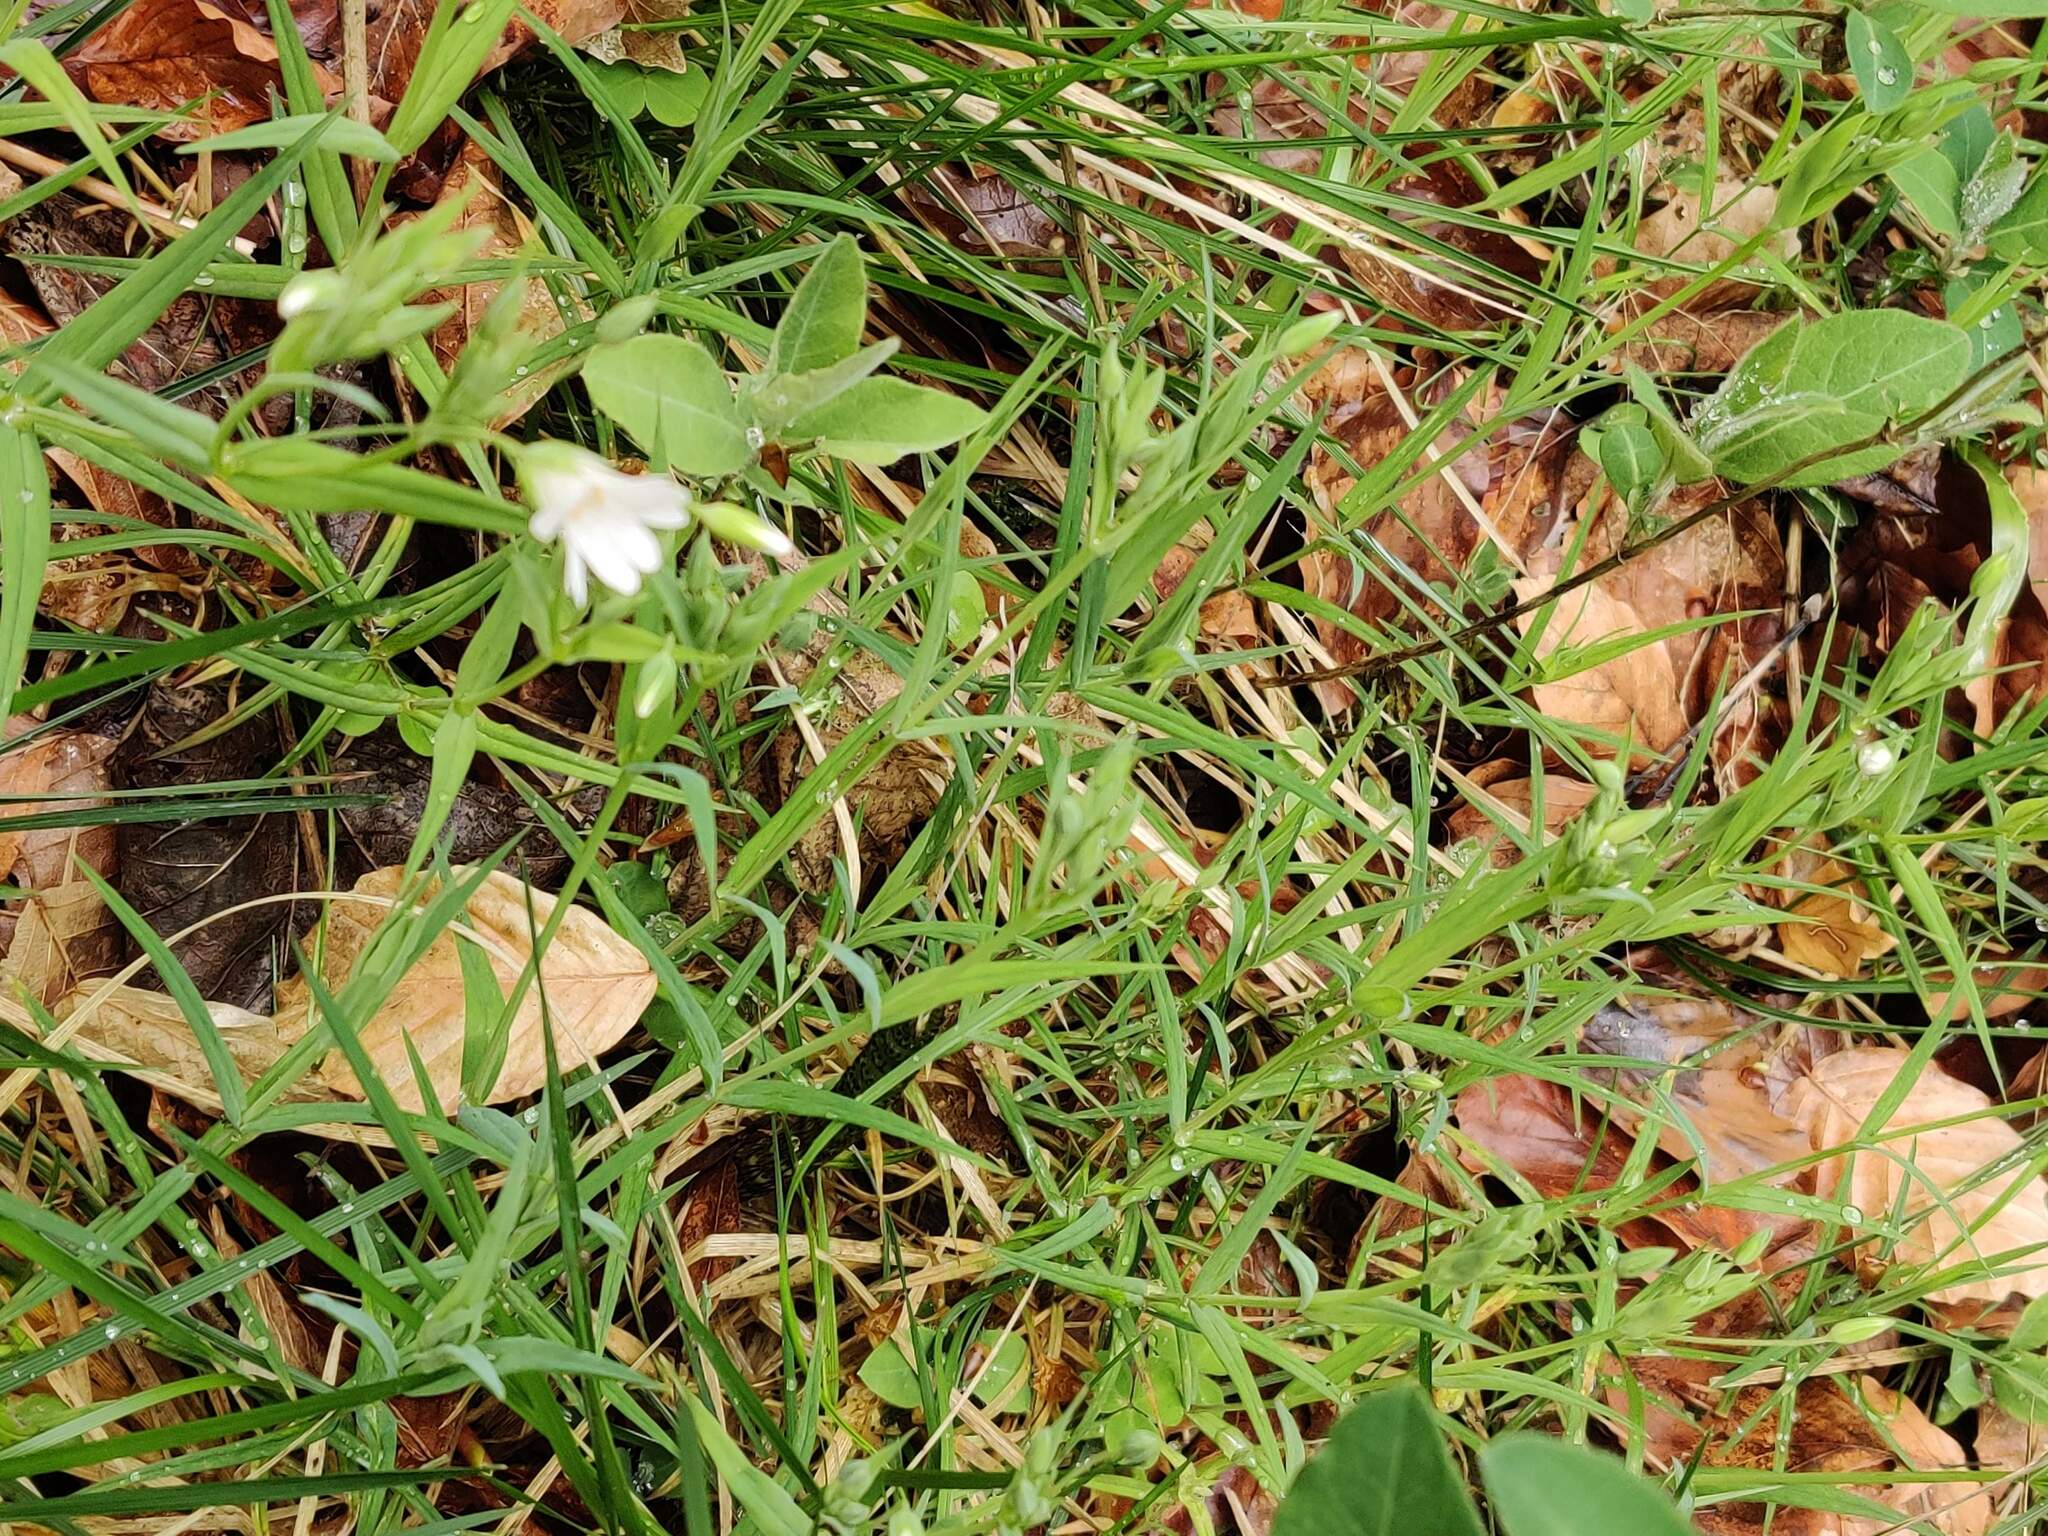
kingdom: Plantae
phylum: Tracheophyta
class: Magnoliopsida
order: Caryophyllales
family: Caryophyllaceae
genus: Rabelera
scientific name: Rabelera holostea
